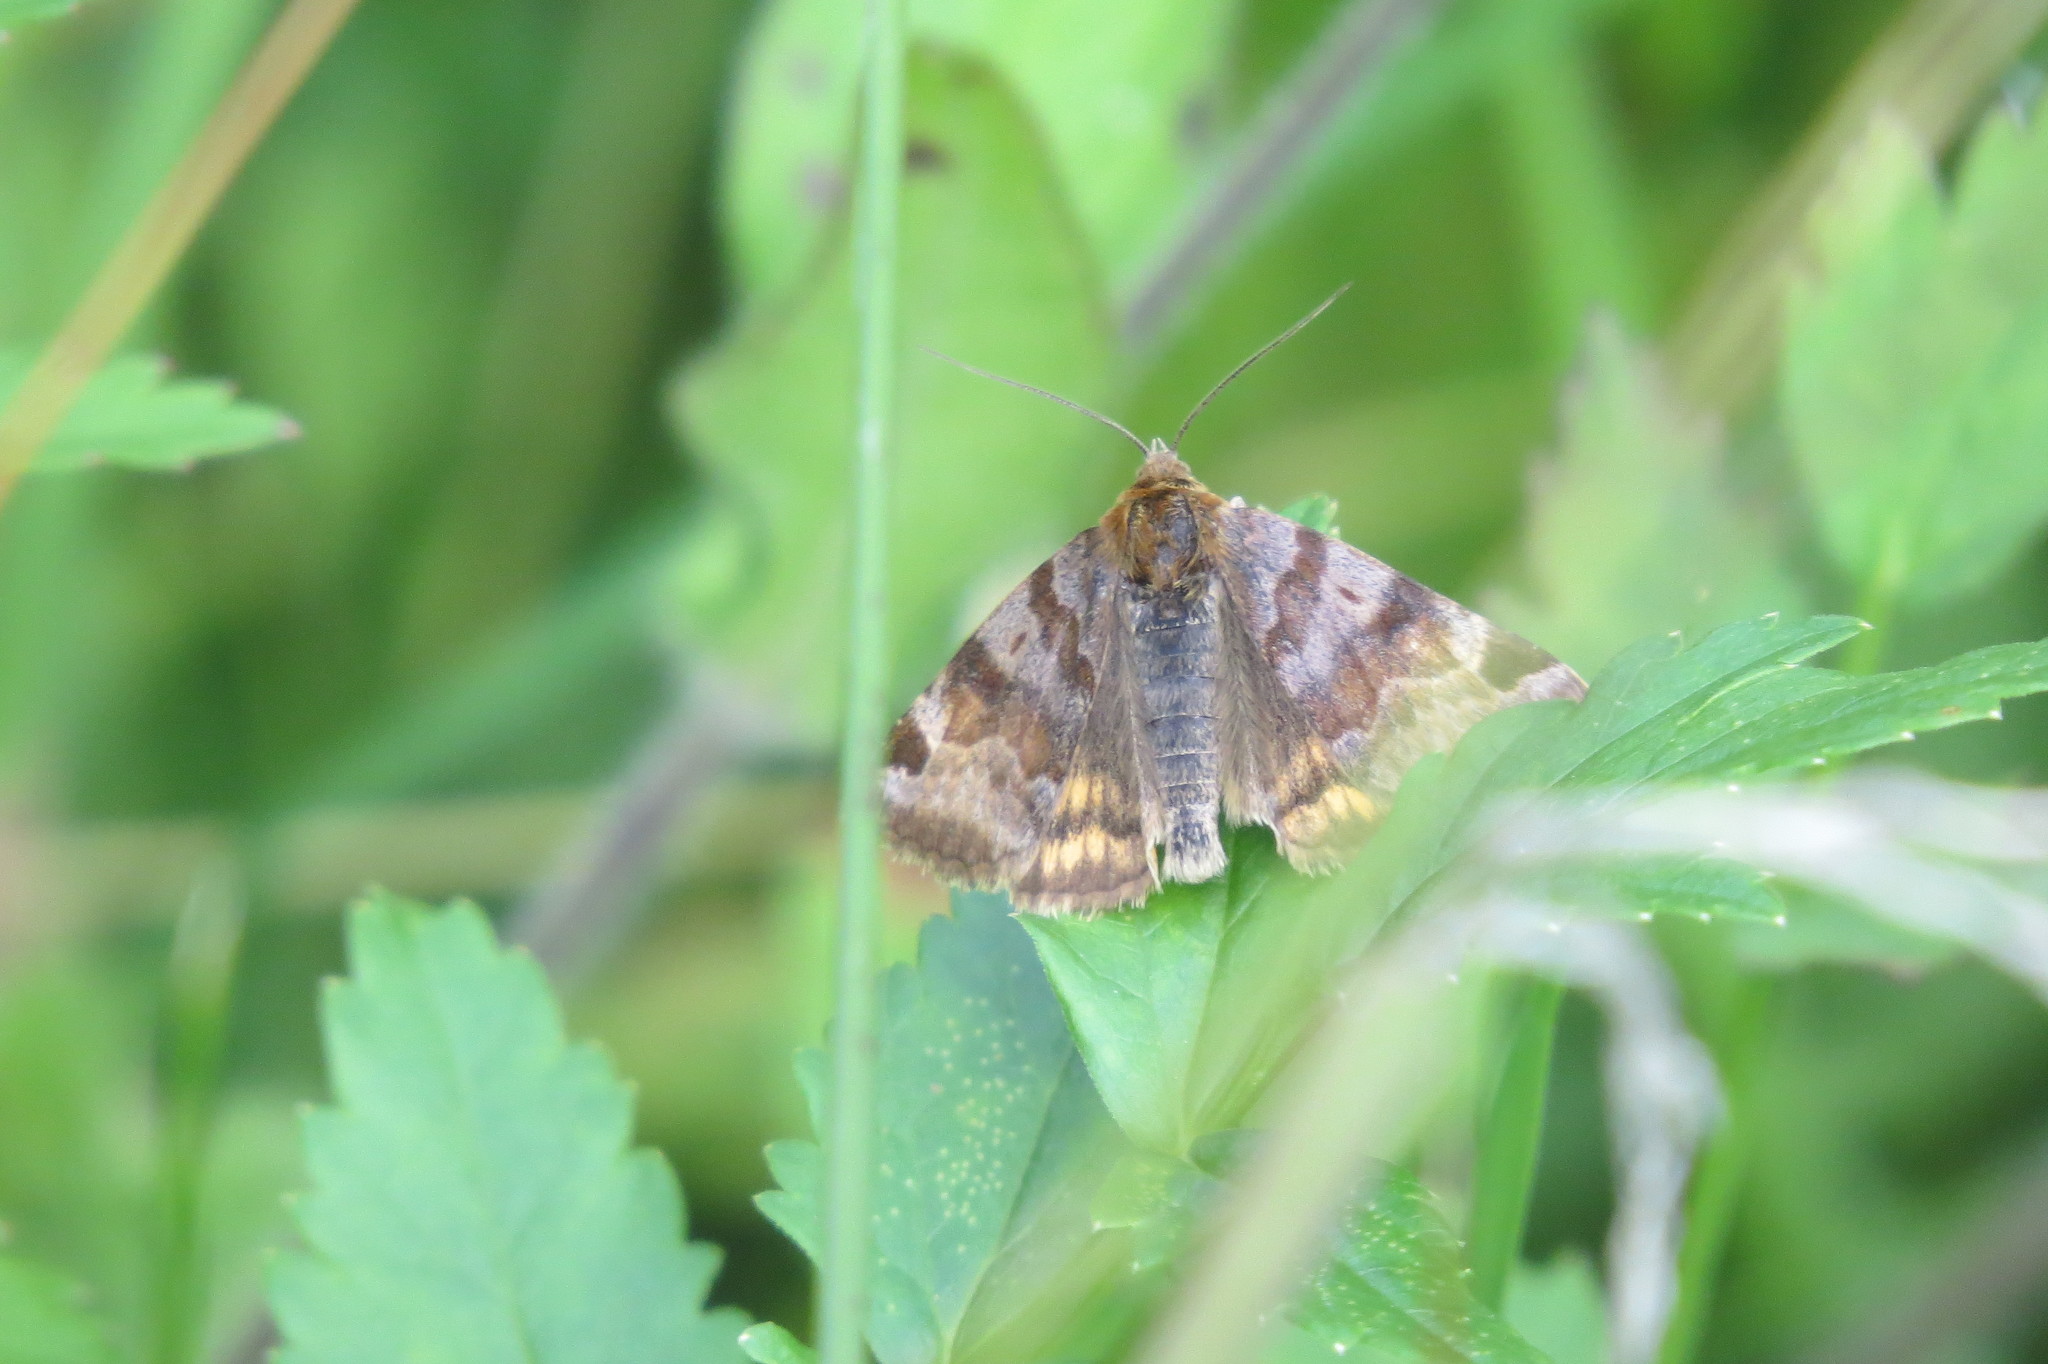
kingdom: Animalia
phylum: Arthropoda
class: Insecta
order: Lepidoptera
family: Erebidae
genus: Euclidia
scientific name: Euclidia glyphica
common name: Burnet companion
